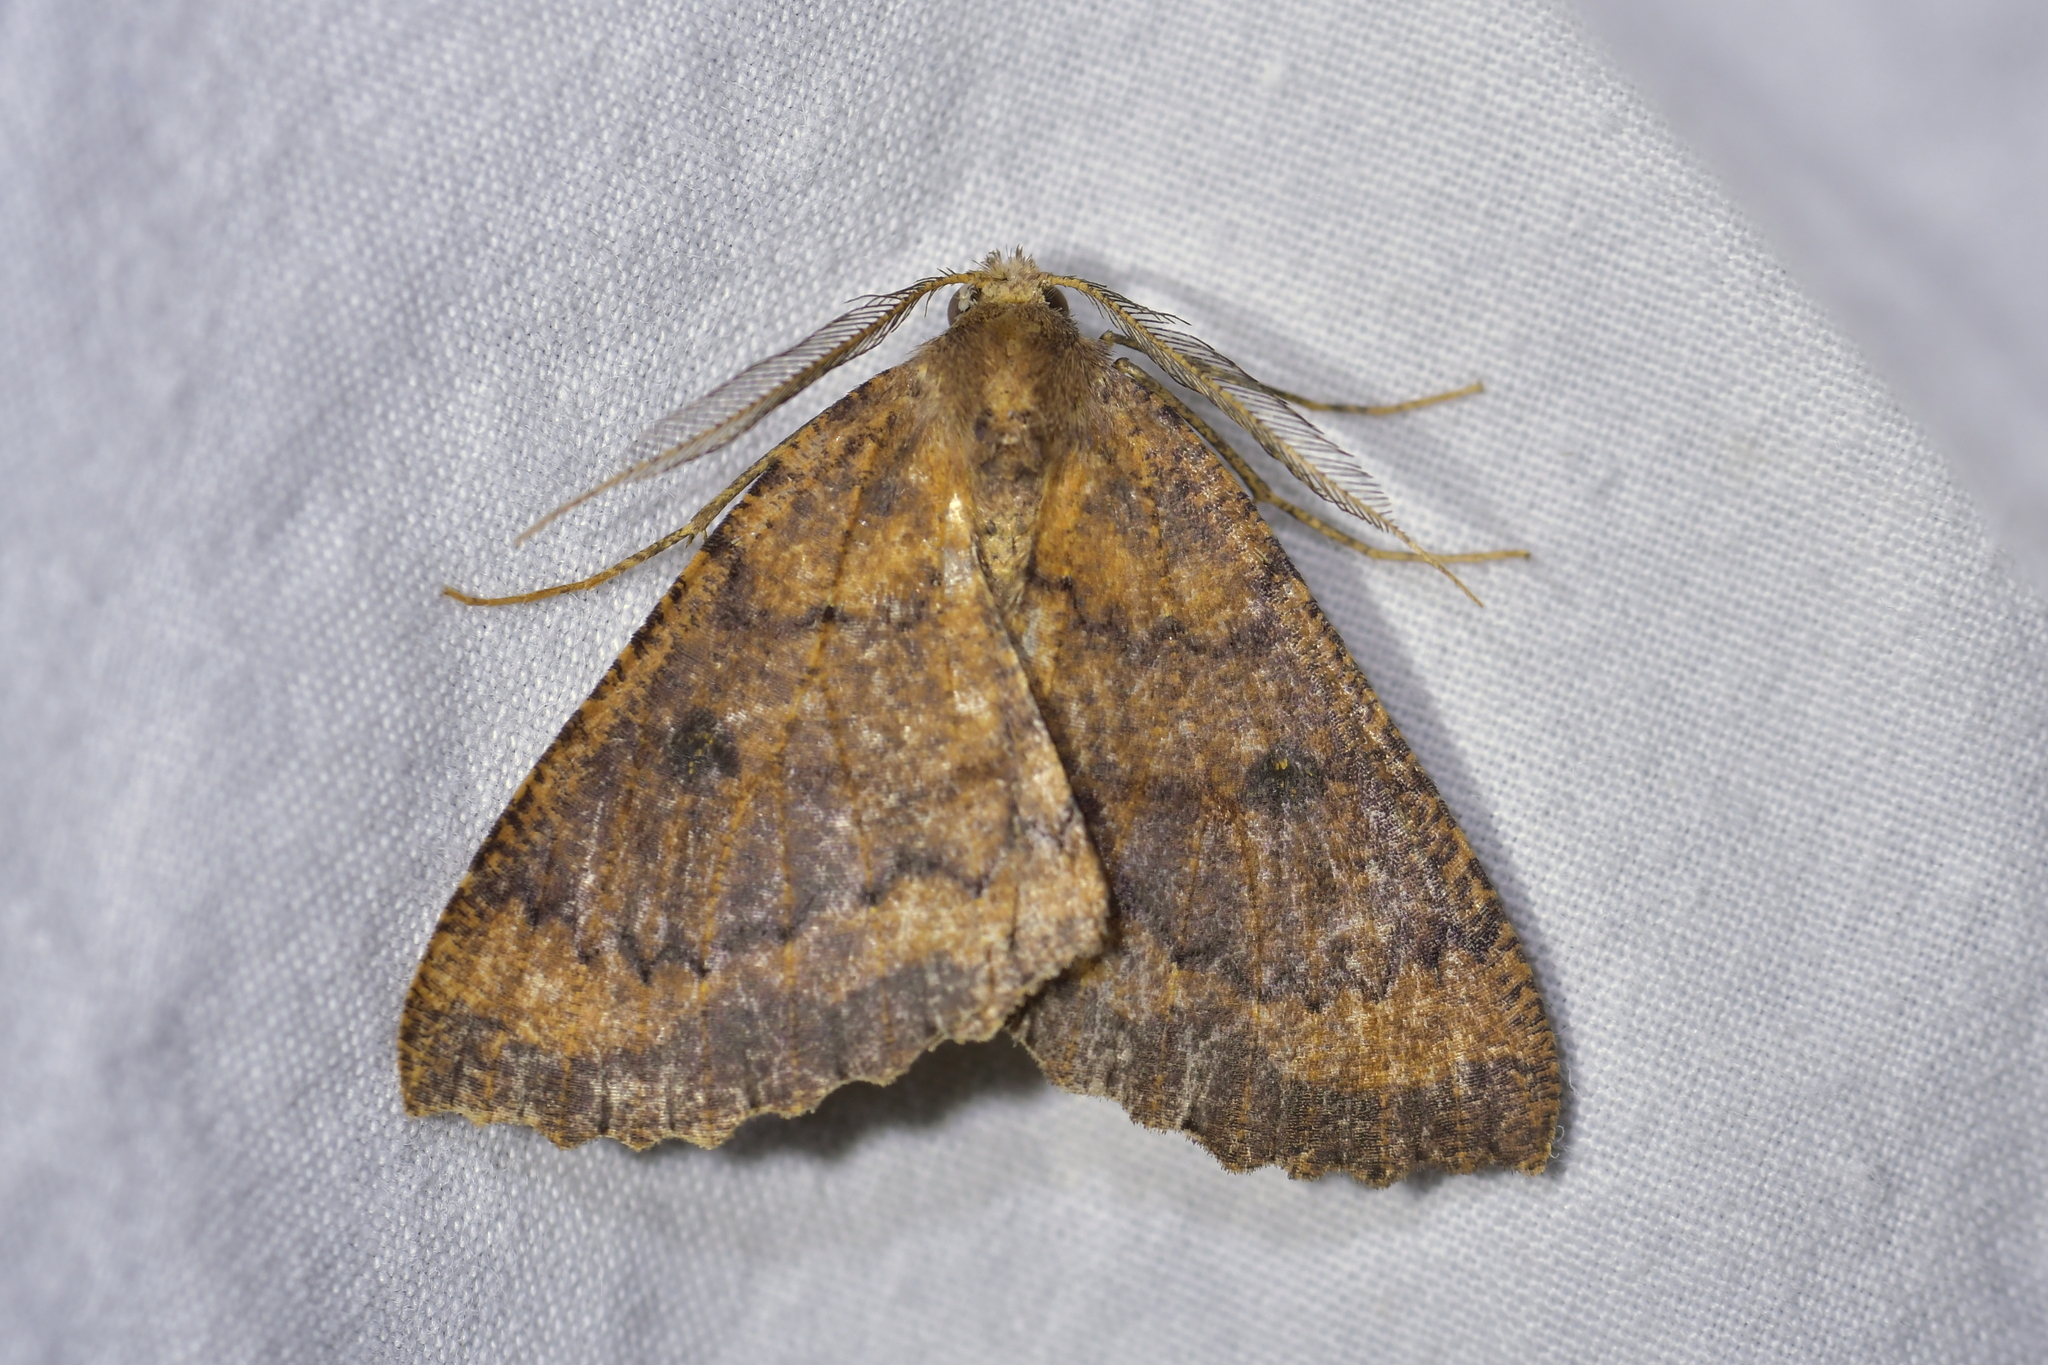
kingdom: Animalia
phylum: Arthropoda
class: Insecta
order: Lepidoptera
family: Geometridae
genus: Cleora
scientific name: Cleora scriptaria
